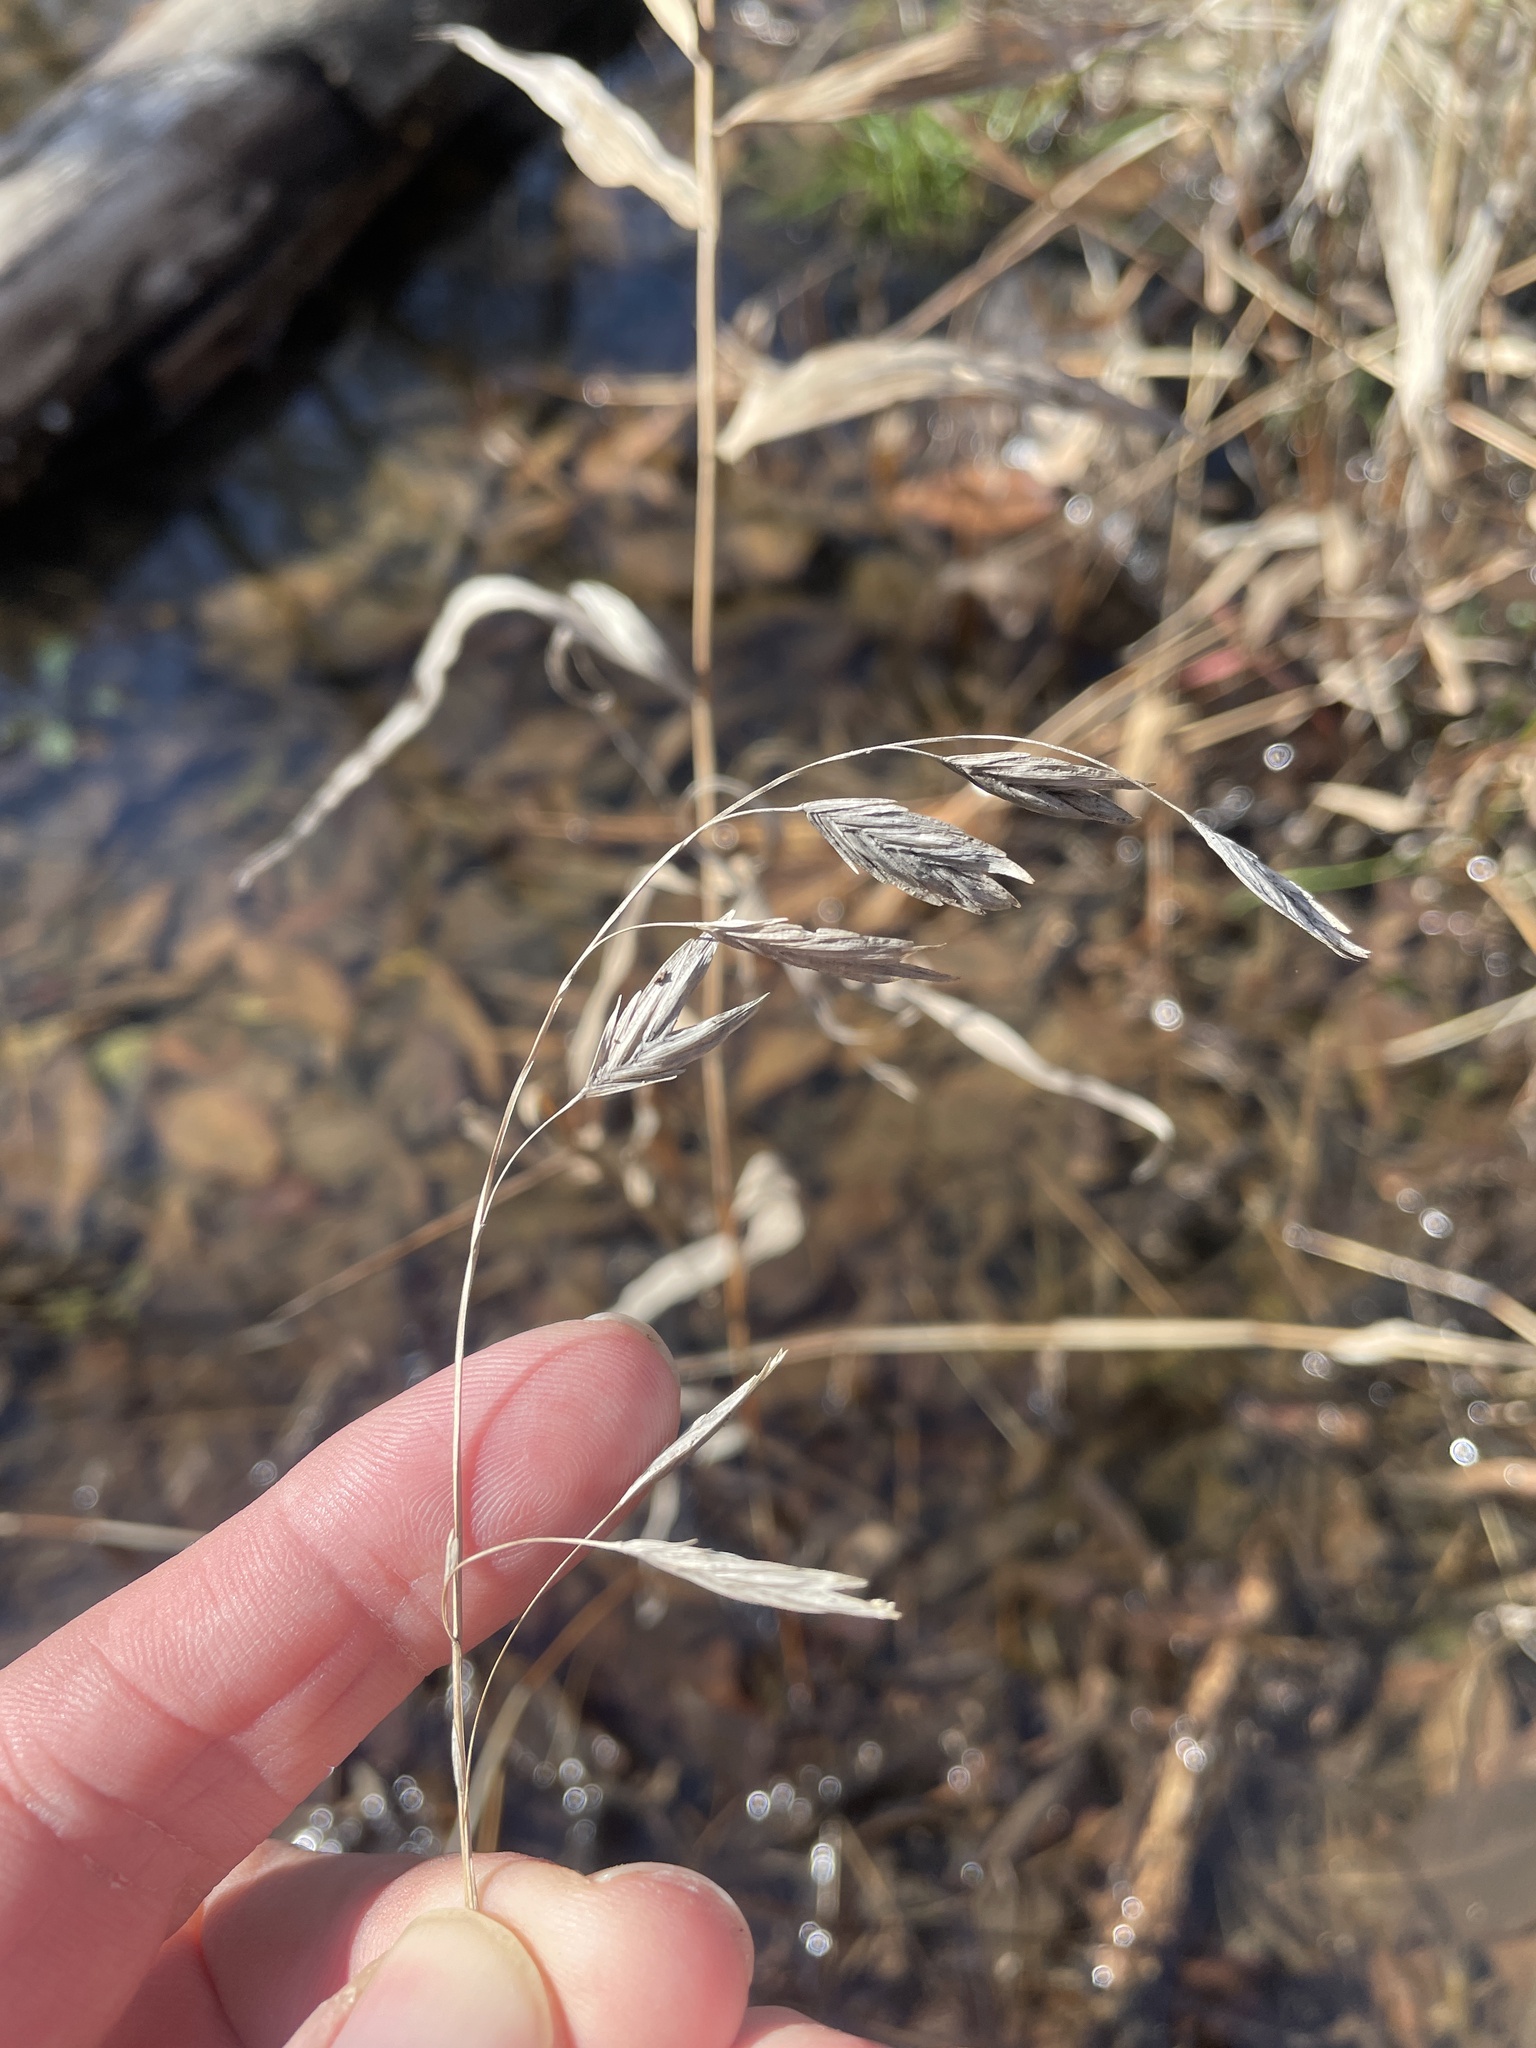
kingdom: Plantae
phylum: Tracheophyta
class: Liliopsida
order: Poales
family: Poaceae
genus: Chasmanthium
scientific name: Chasmanthium latifolium
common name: Broad-leaved chasmanthium
